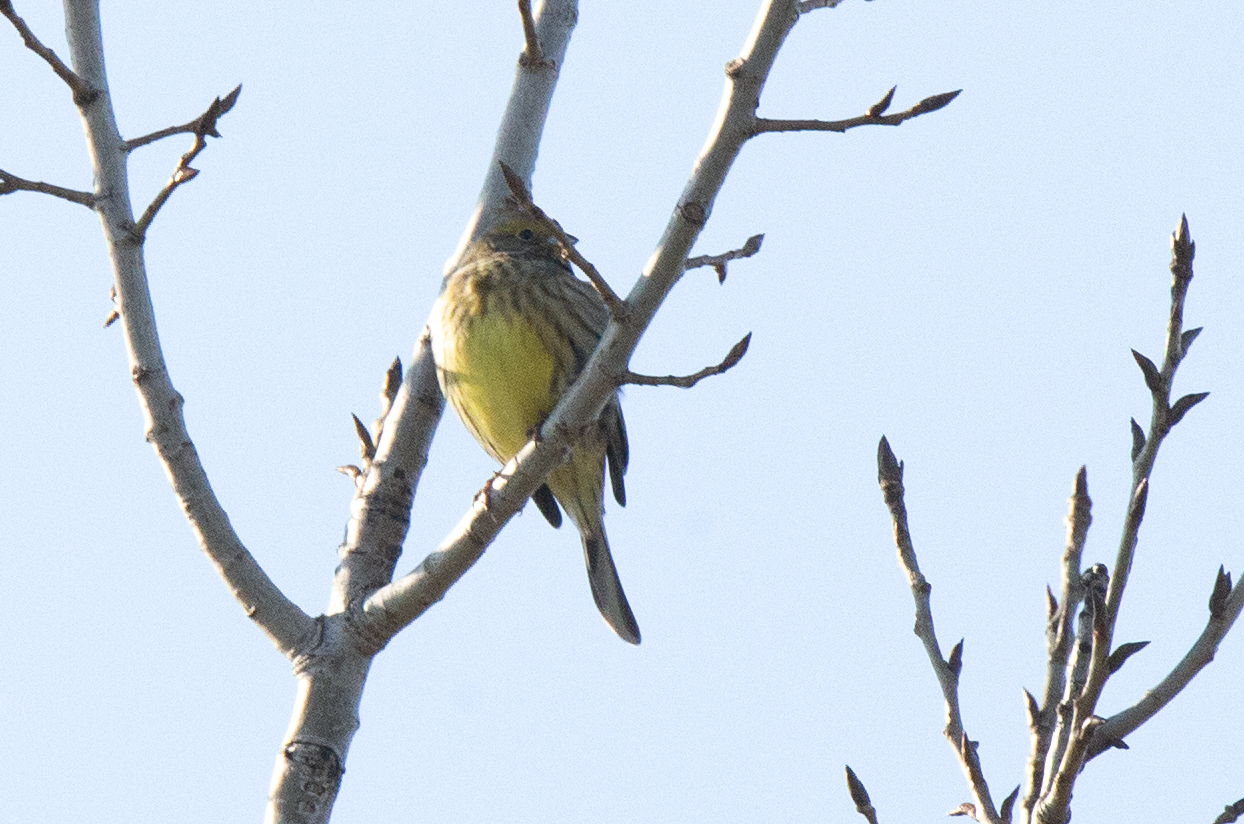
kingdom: Animalia
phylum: Chordata
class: Aves
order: Passeriformes
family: Emberizidae
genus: Emberiza
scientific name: Emberiza citrinella
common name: Yellowhammer
